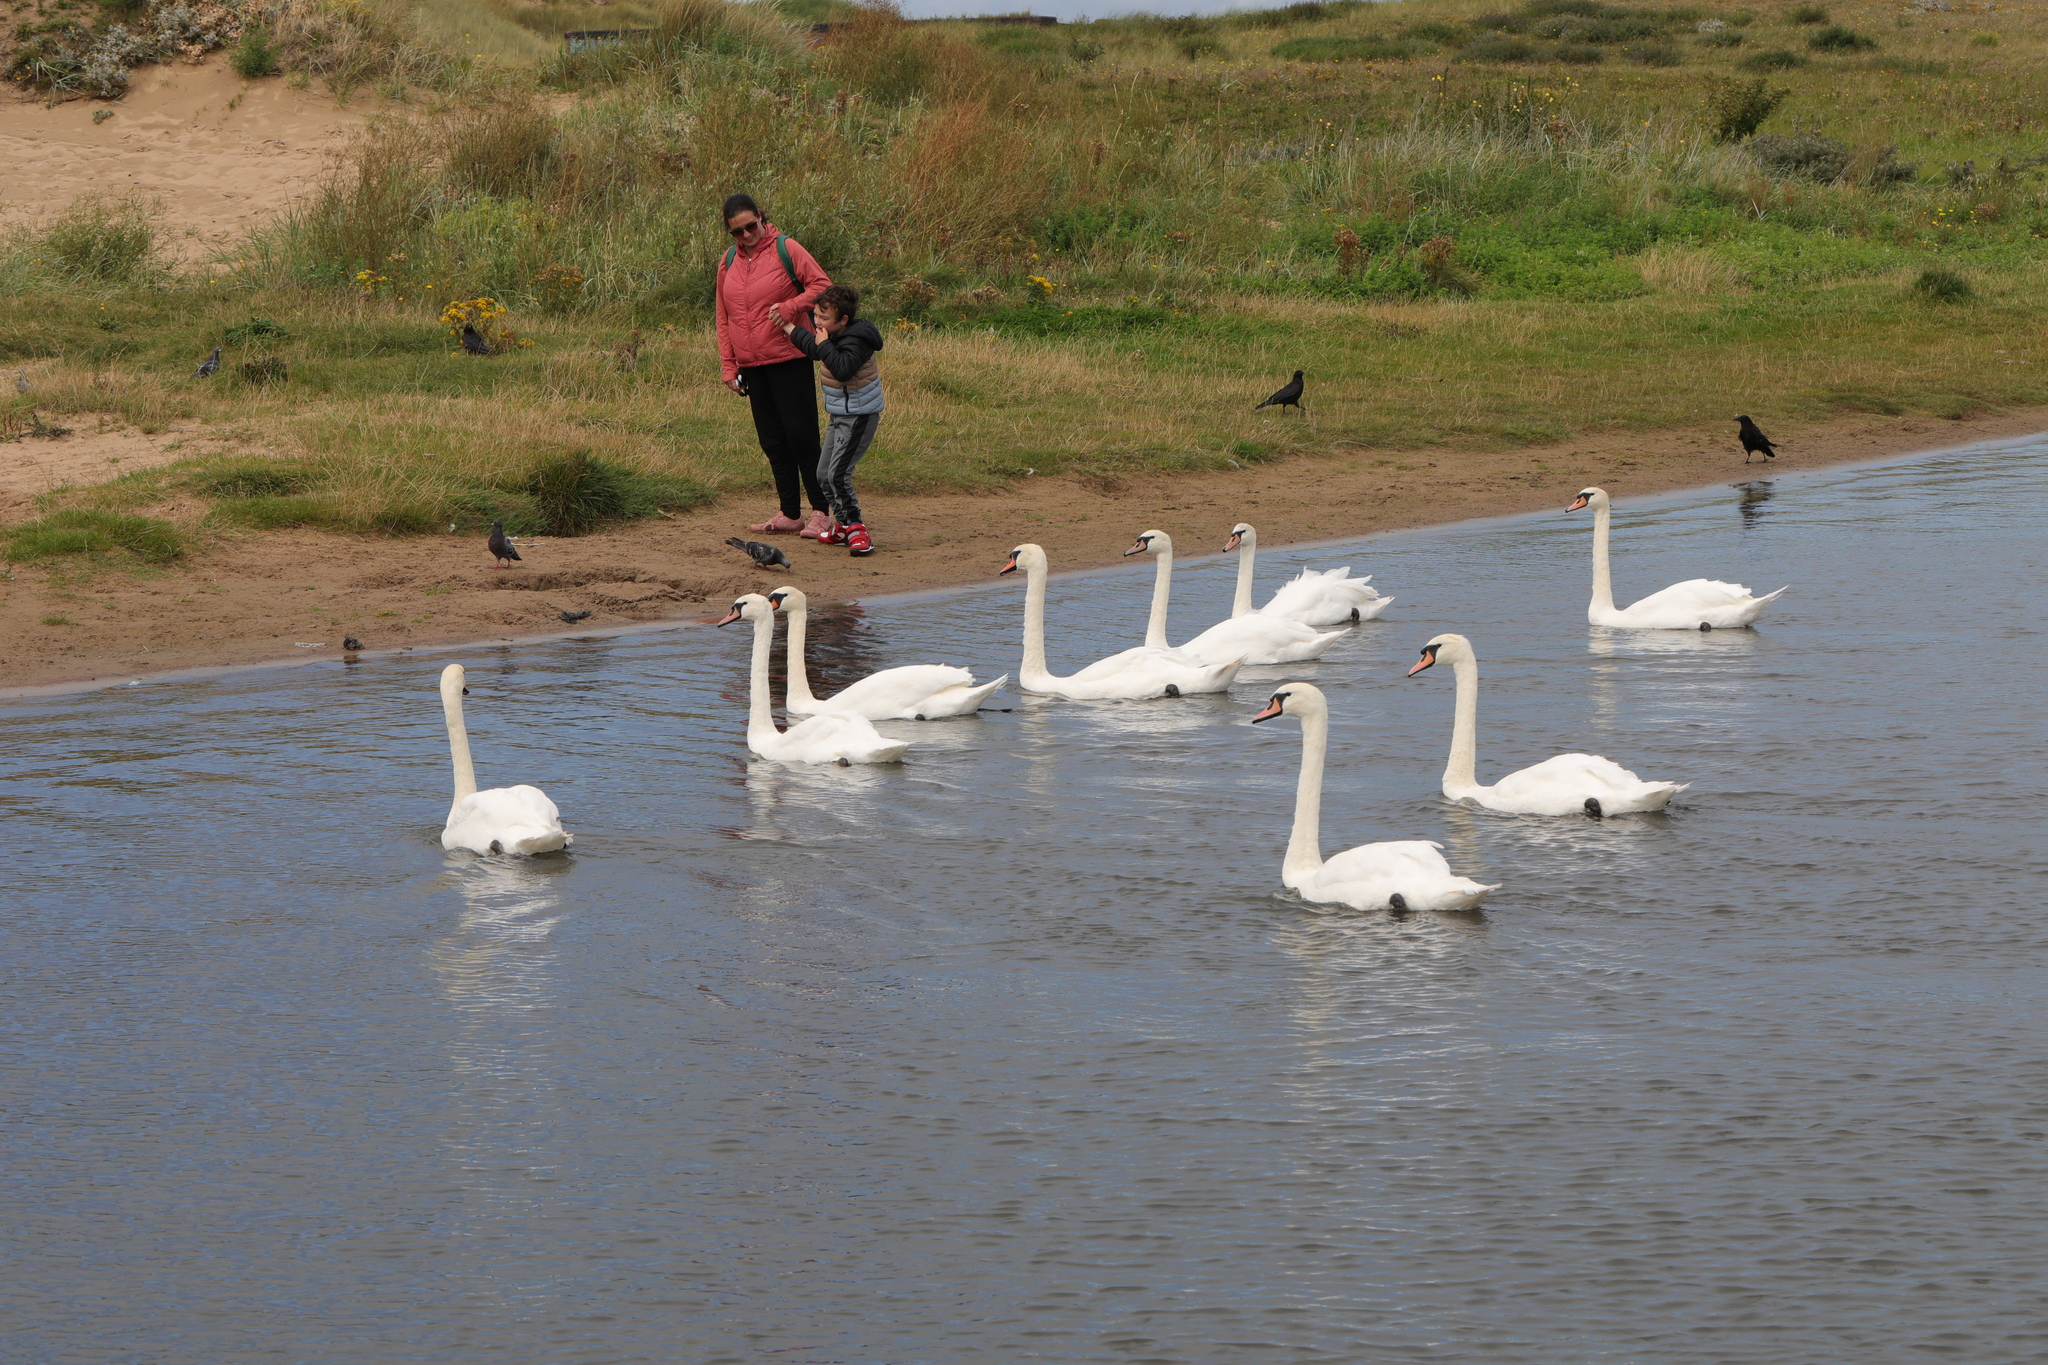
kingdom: Animalia
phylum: Chordata
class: Aves
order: Anseriformes
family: Anatidae
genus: Cygnus
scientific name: Cygnus olor
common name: Mute swan
